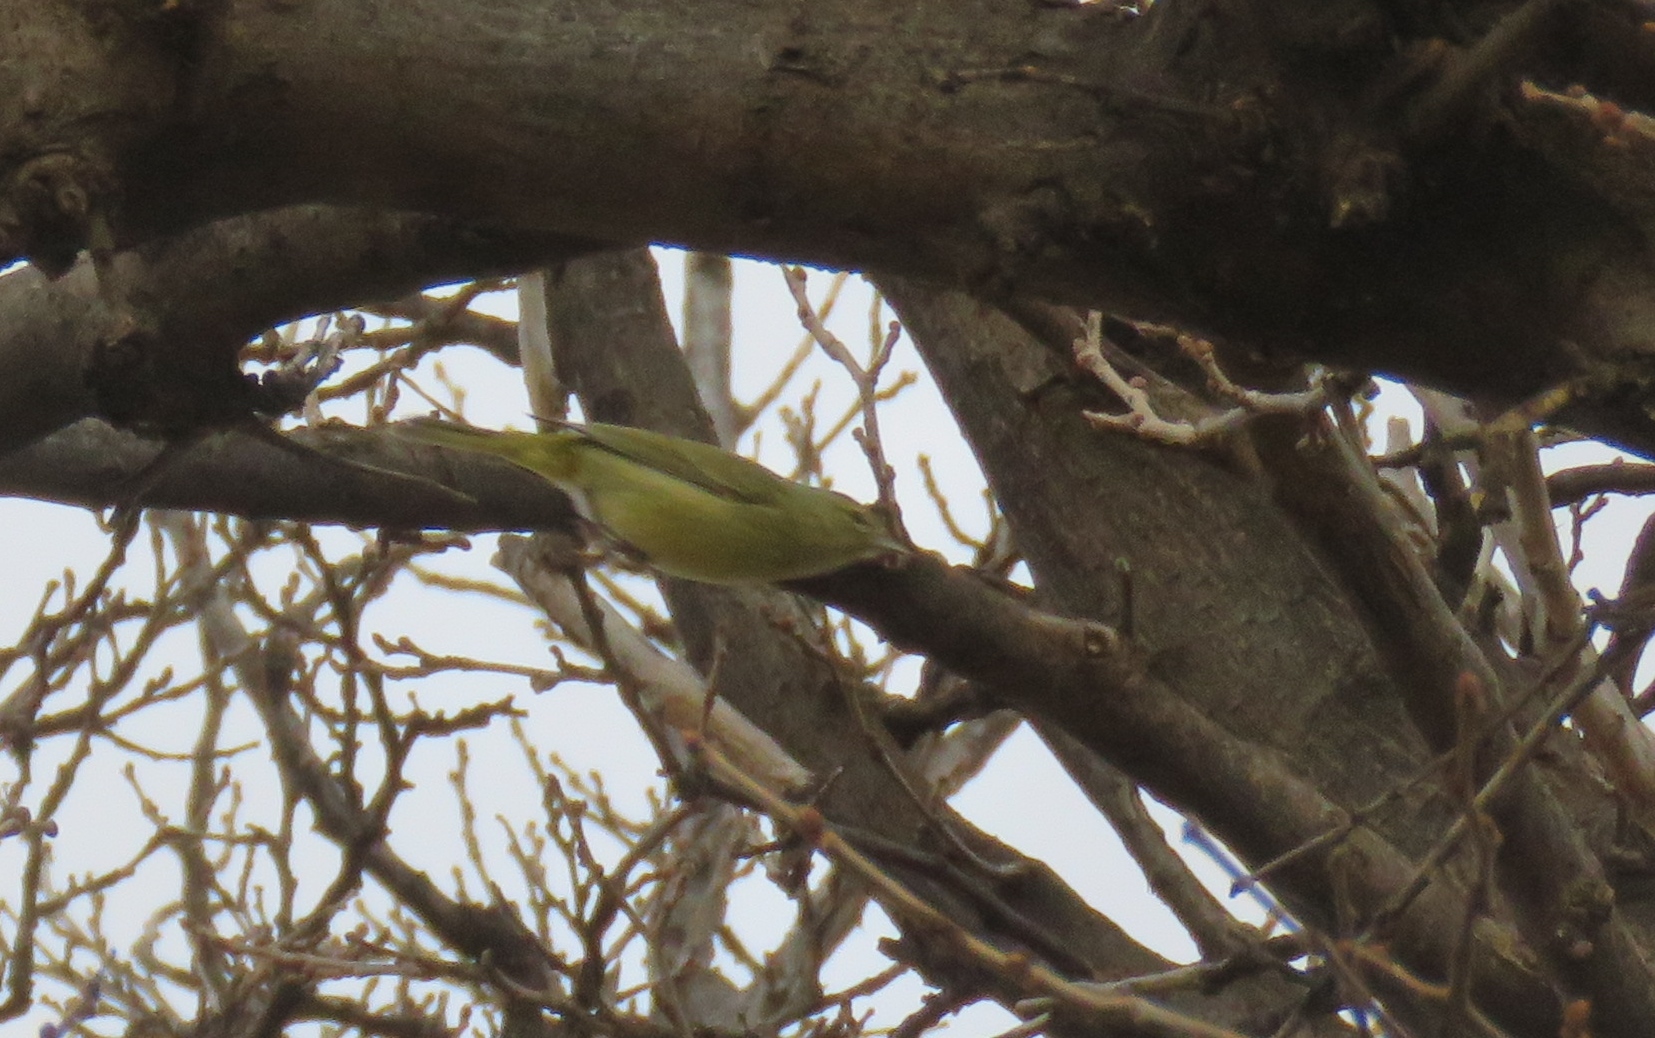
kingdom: Animalia
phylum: Chordata
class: Aves
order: Passeriformes
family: Parulidae
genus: Leiothlypis
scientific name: Leiothlypis celata
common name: Orange-crowned warbler
